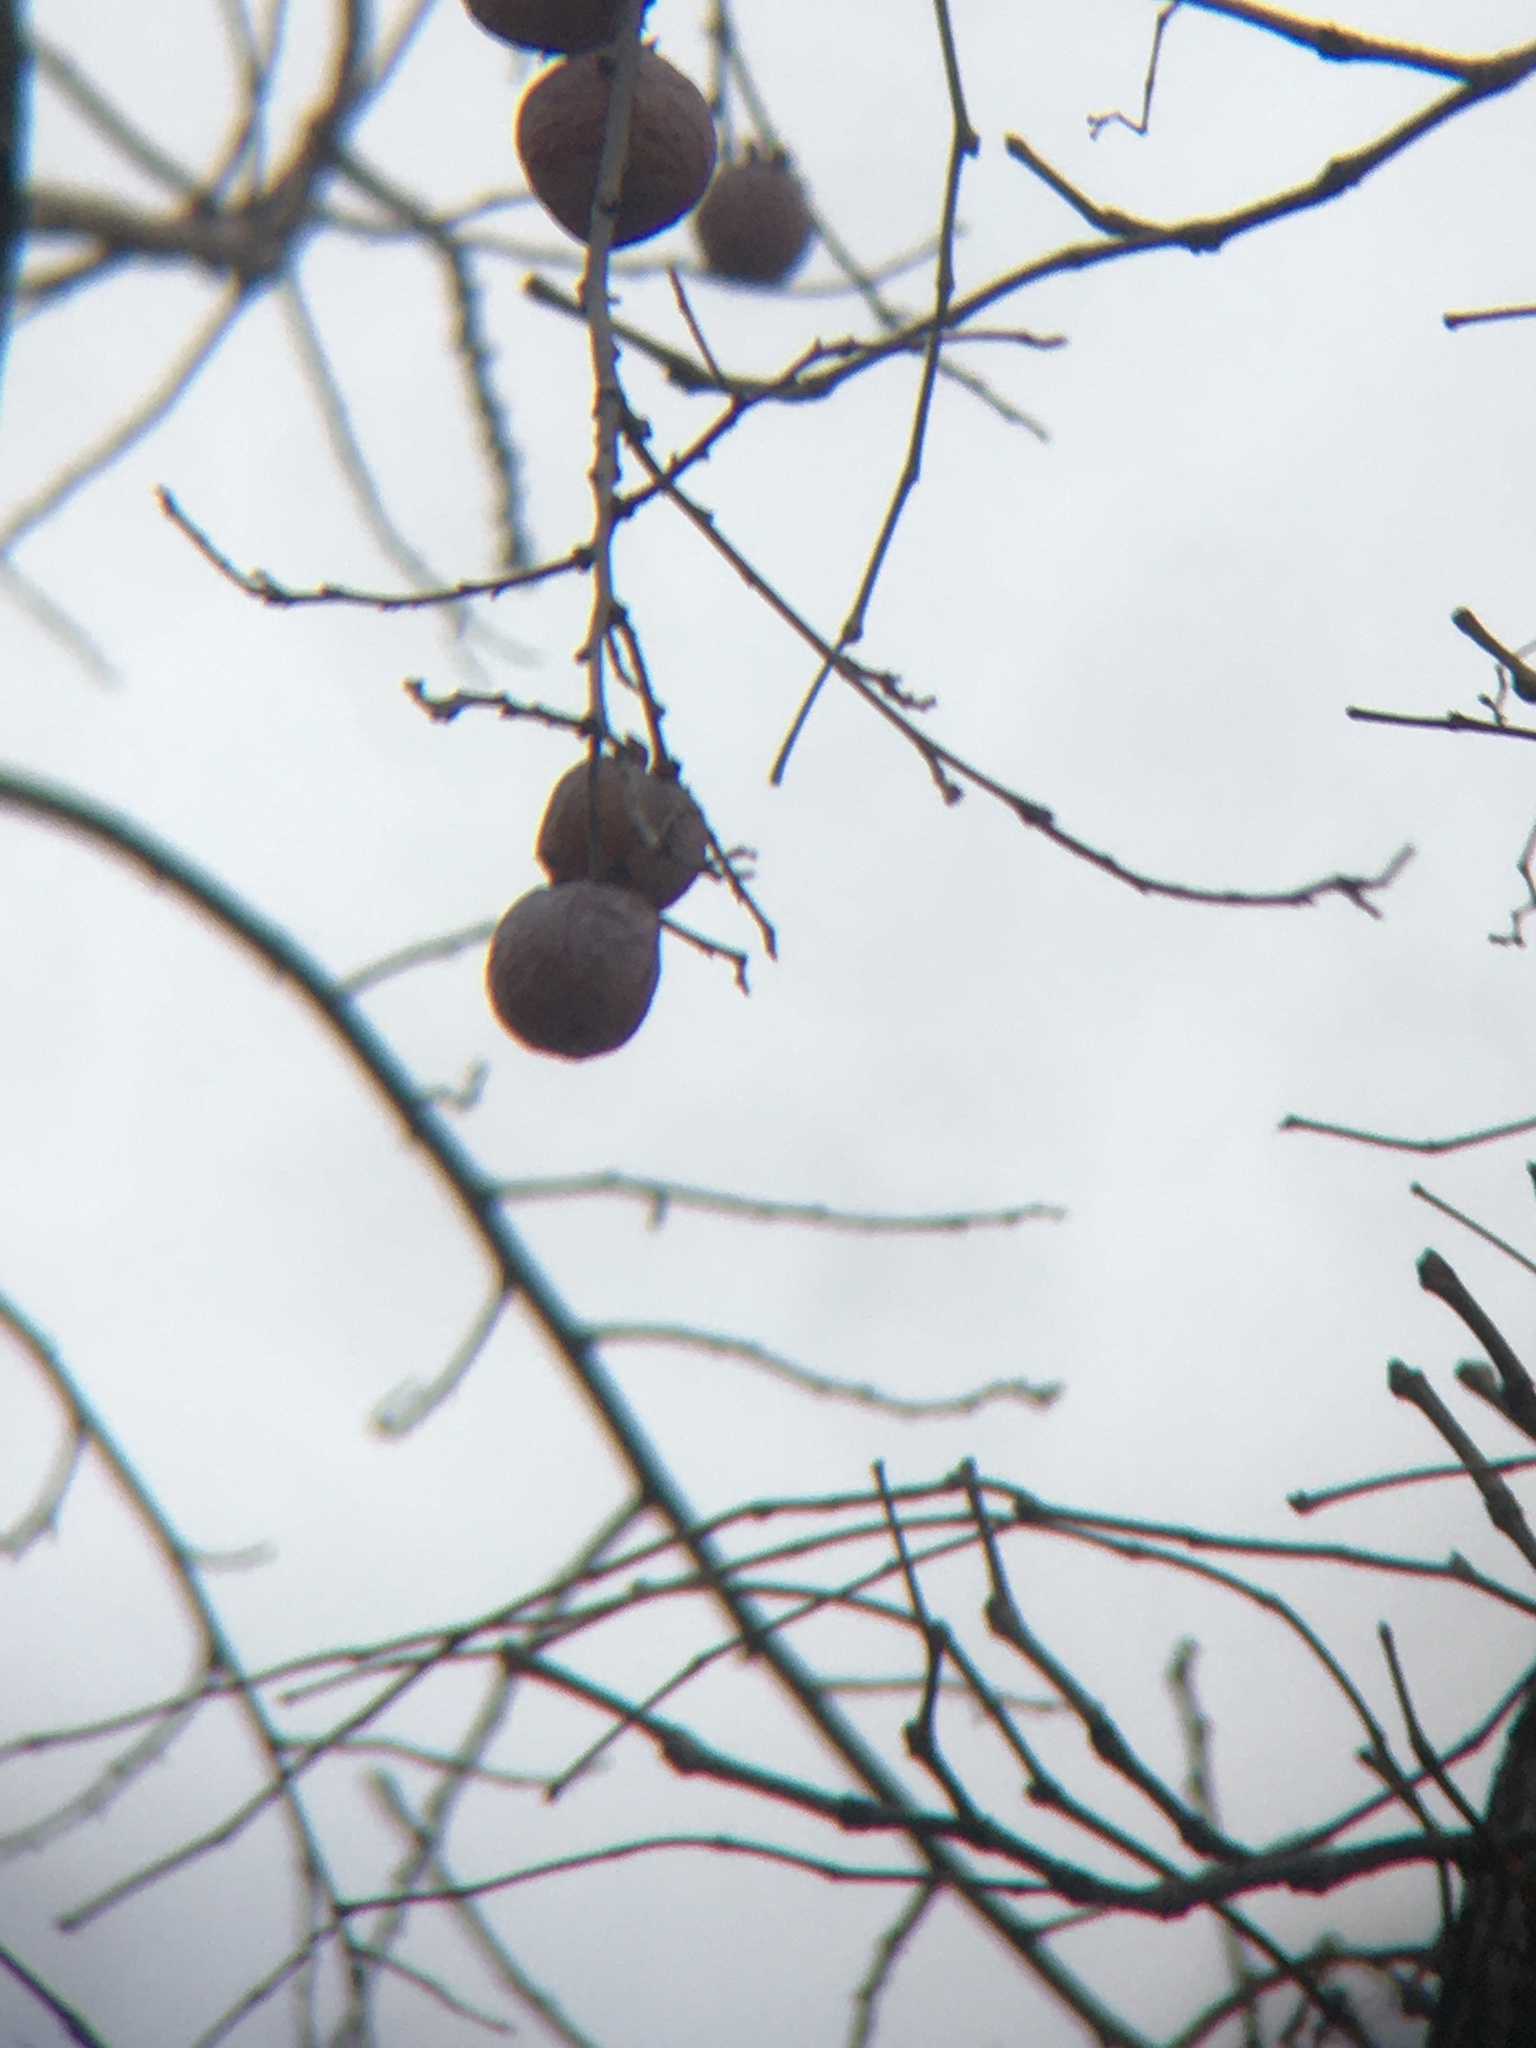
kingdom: Plantae
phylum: Tracheophyta
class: Magnoliopsida
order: Ericales
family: Ebenaceae
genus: Diospyros
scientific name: Diospyros virginiana
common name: Persimmon
